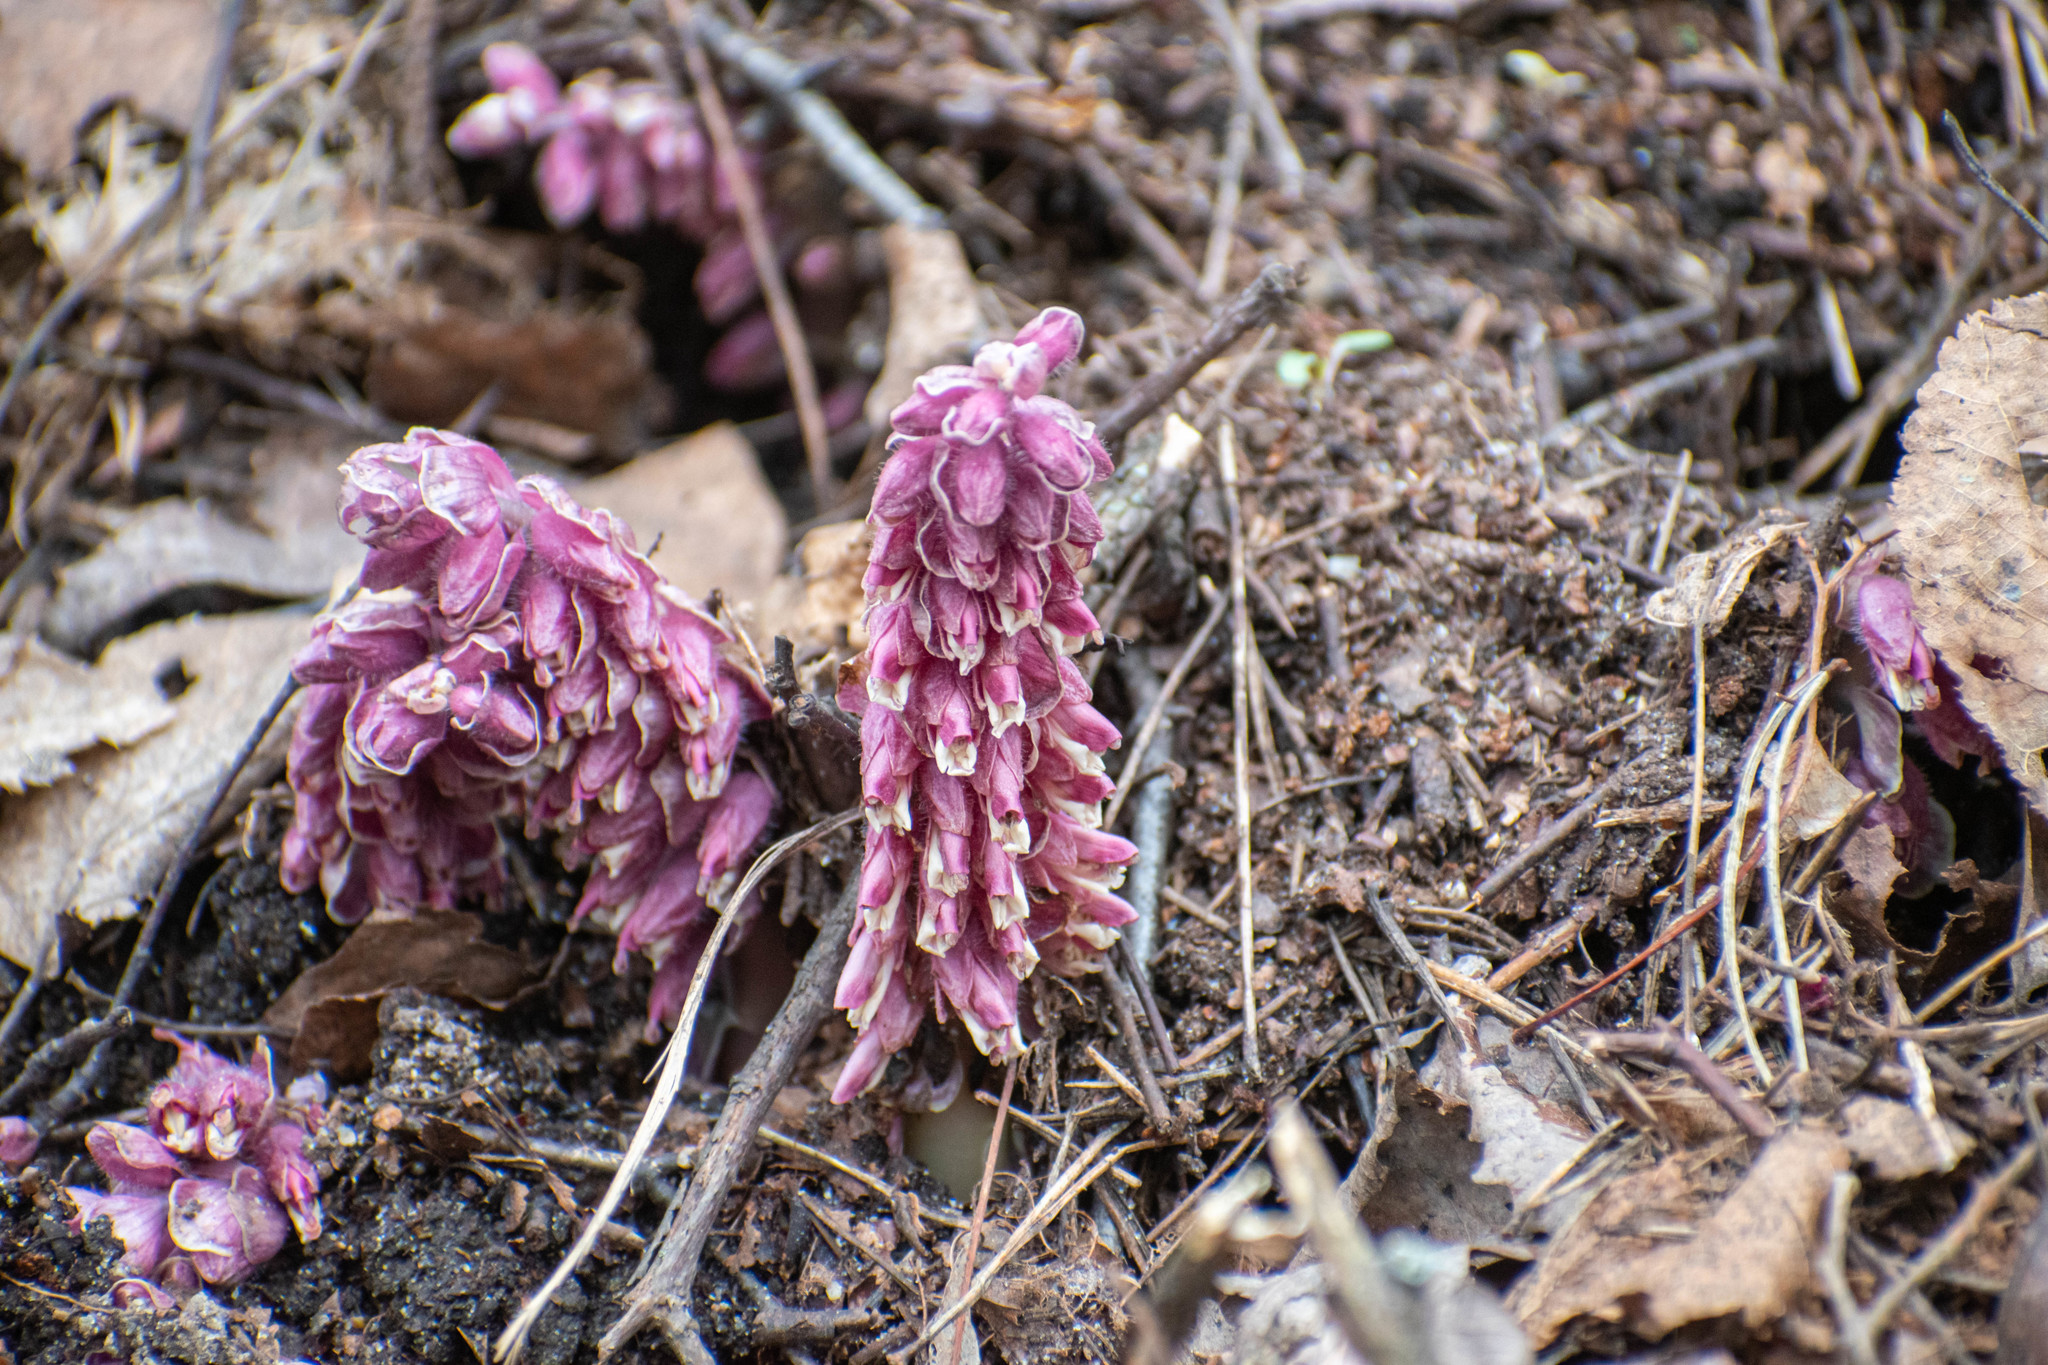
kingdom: Plantae
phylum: Tracheophyta
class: Magnoliopsida
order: Lamiales
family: Orobanchaceae
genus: Lathraea
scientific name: Lathraea squamaria
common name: Toothwort
